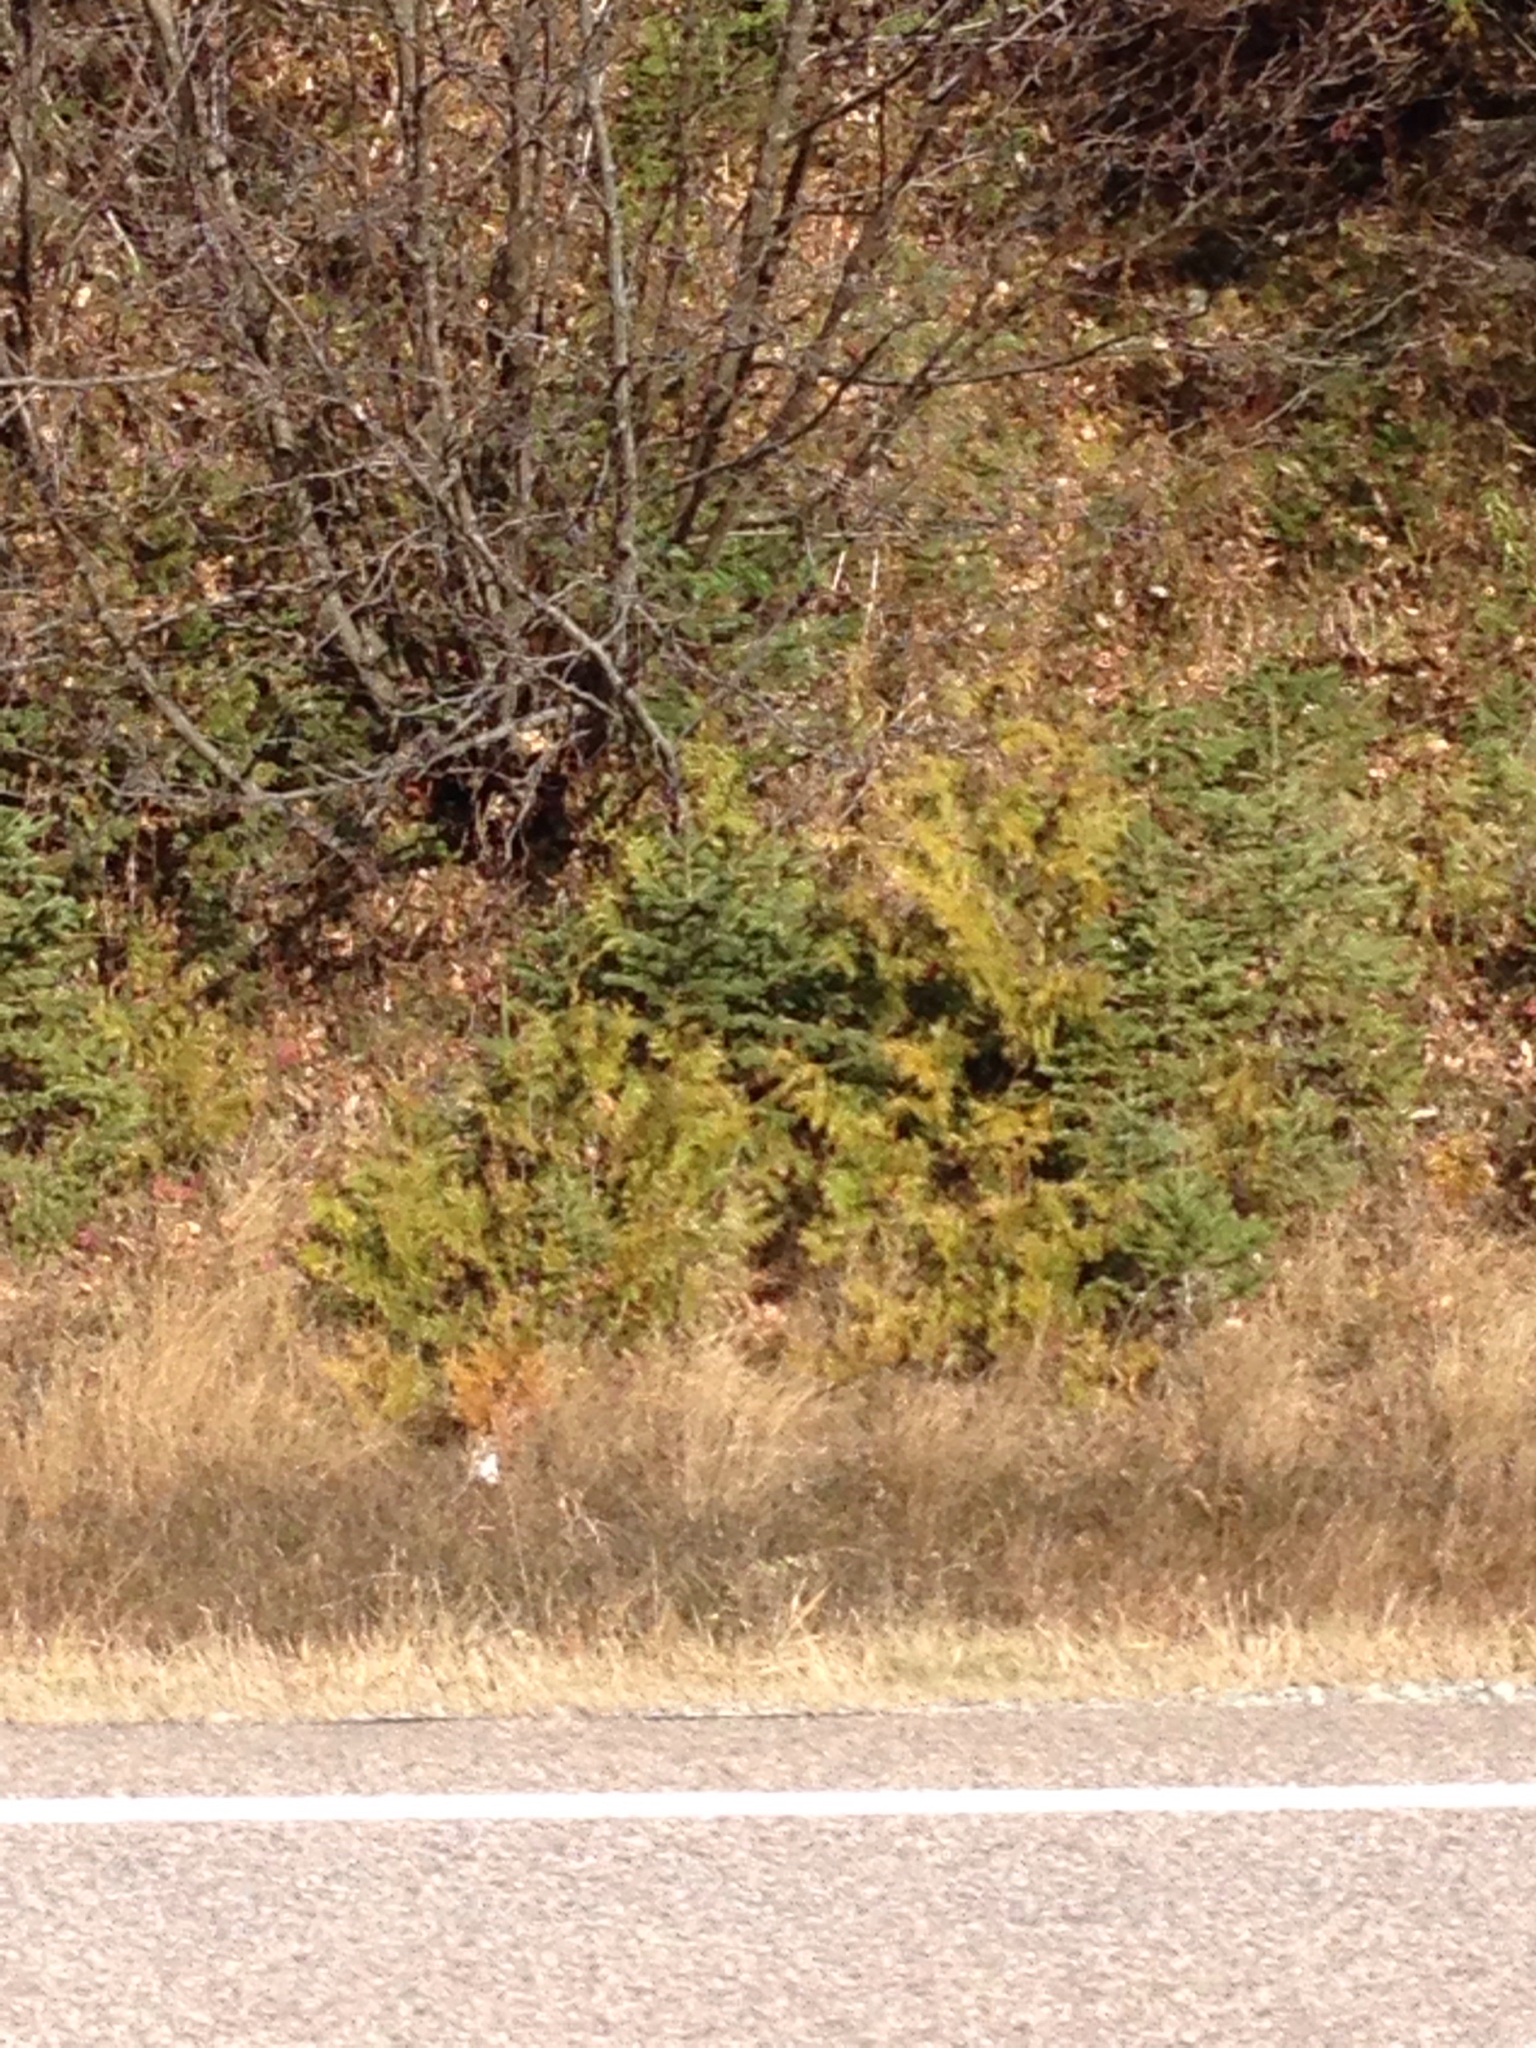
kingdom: Plantae
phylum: Tracheophyta
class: Pinopsida
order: Pinales
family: Cupressaceae
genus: Thuja
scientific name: Thuja occidentalis
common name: Northern white-cedar
